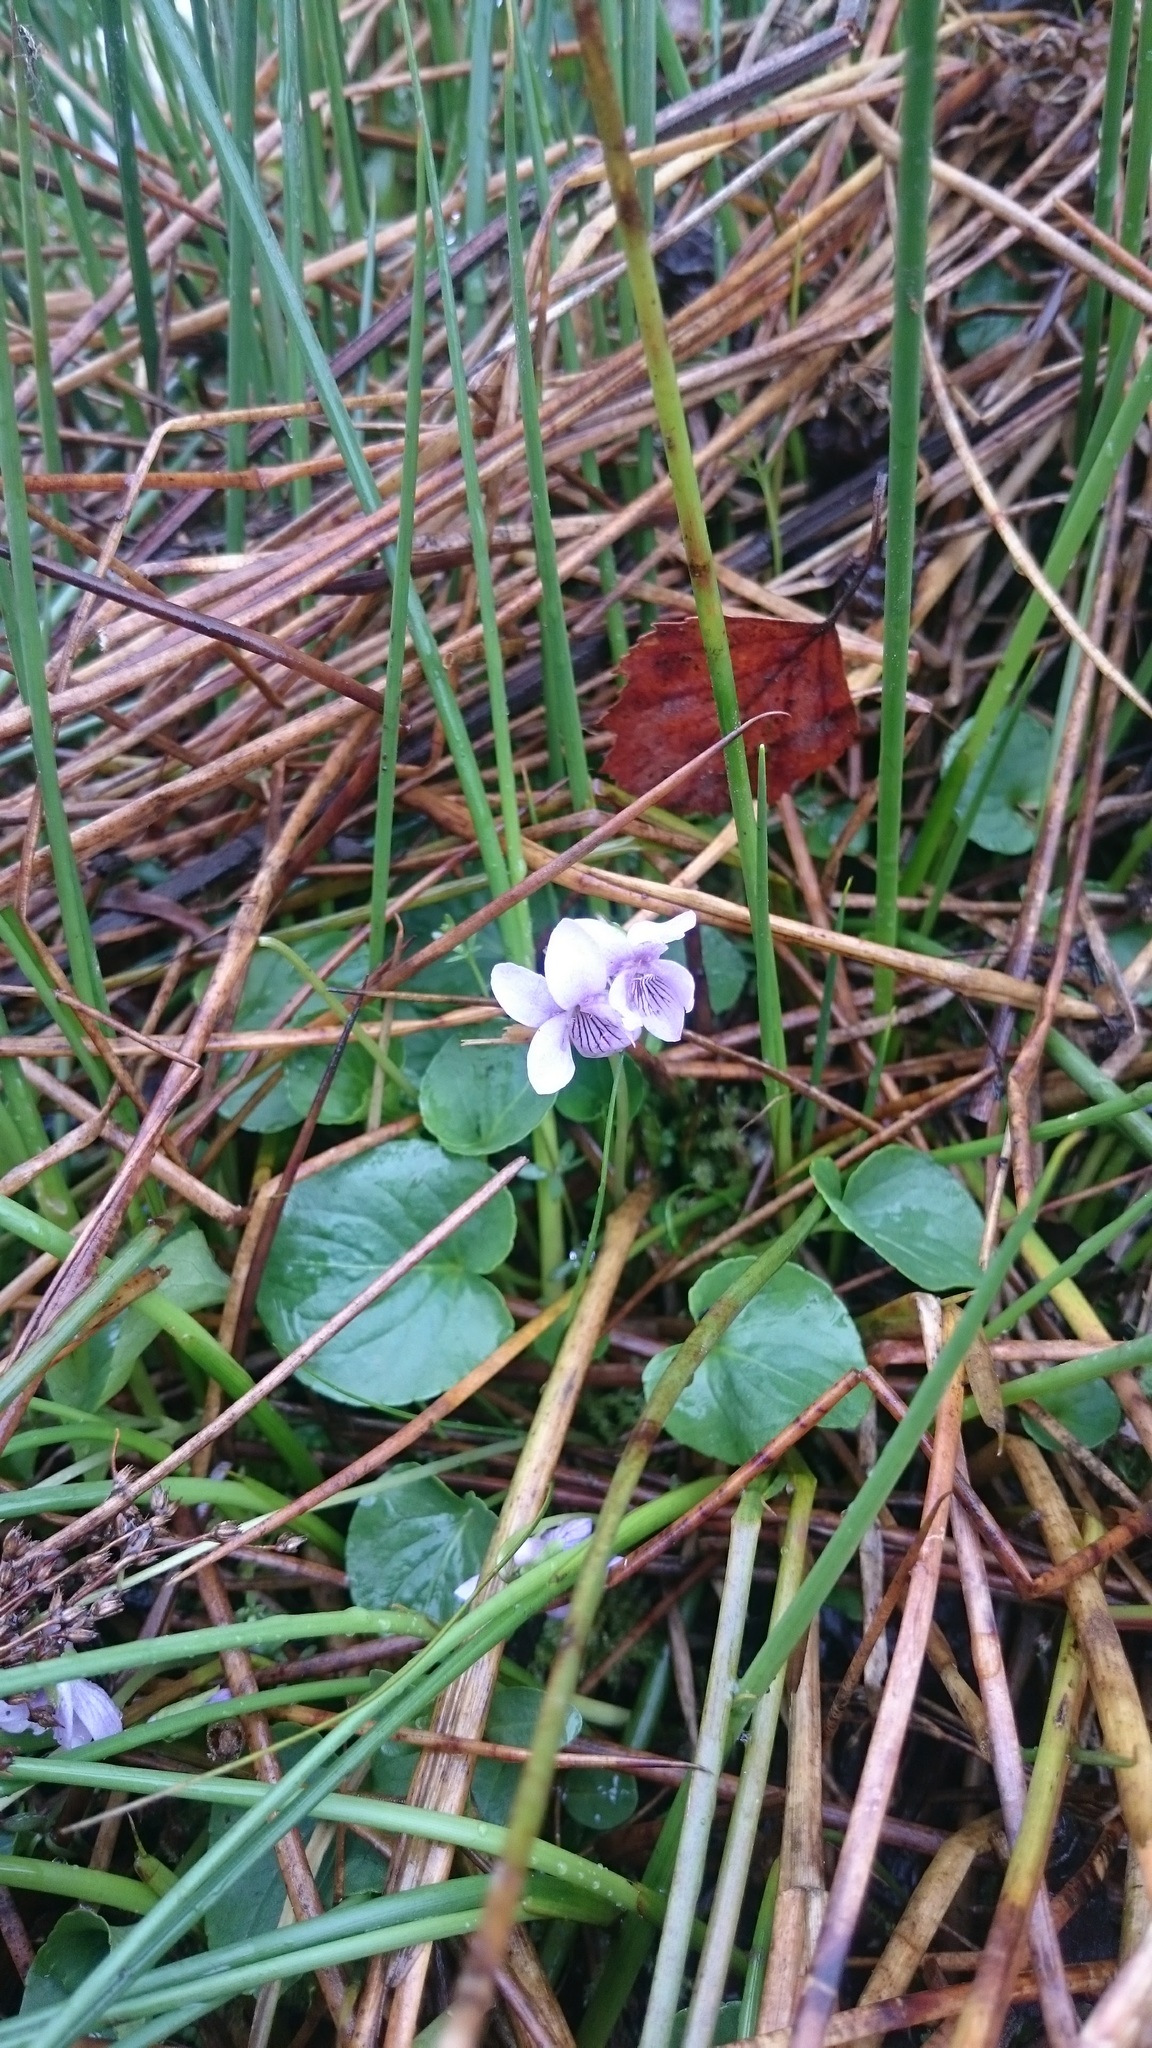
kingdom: Plantae
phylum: Tracheophyta
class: Magnoliopsida
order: Malpighiales
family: Violaceae
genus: Viola
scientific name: Viola palustris
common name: Marsh violet
